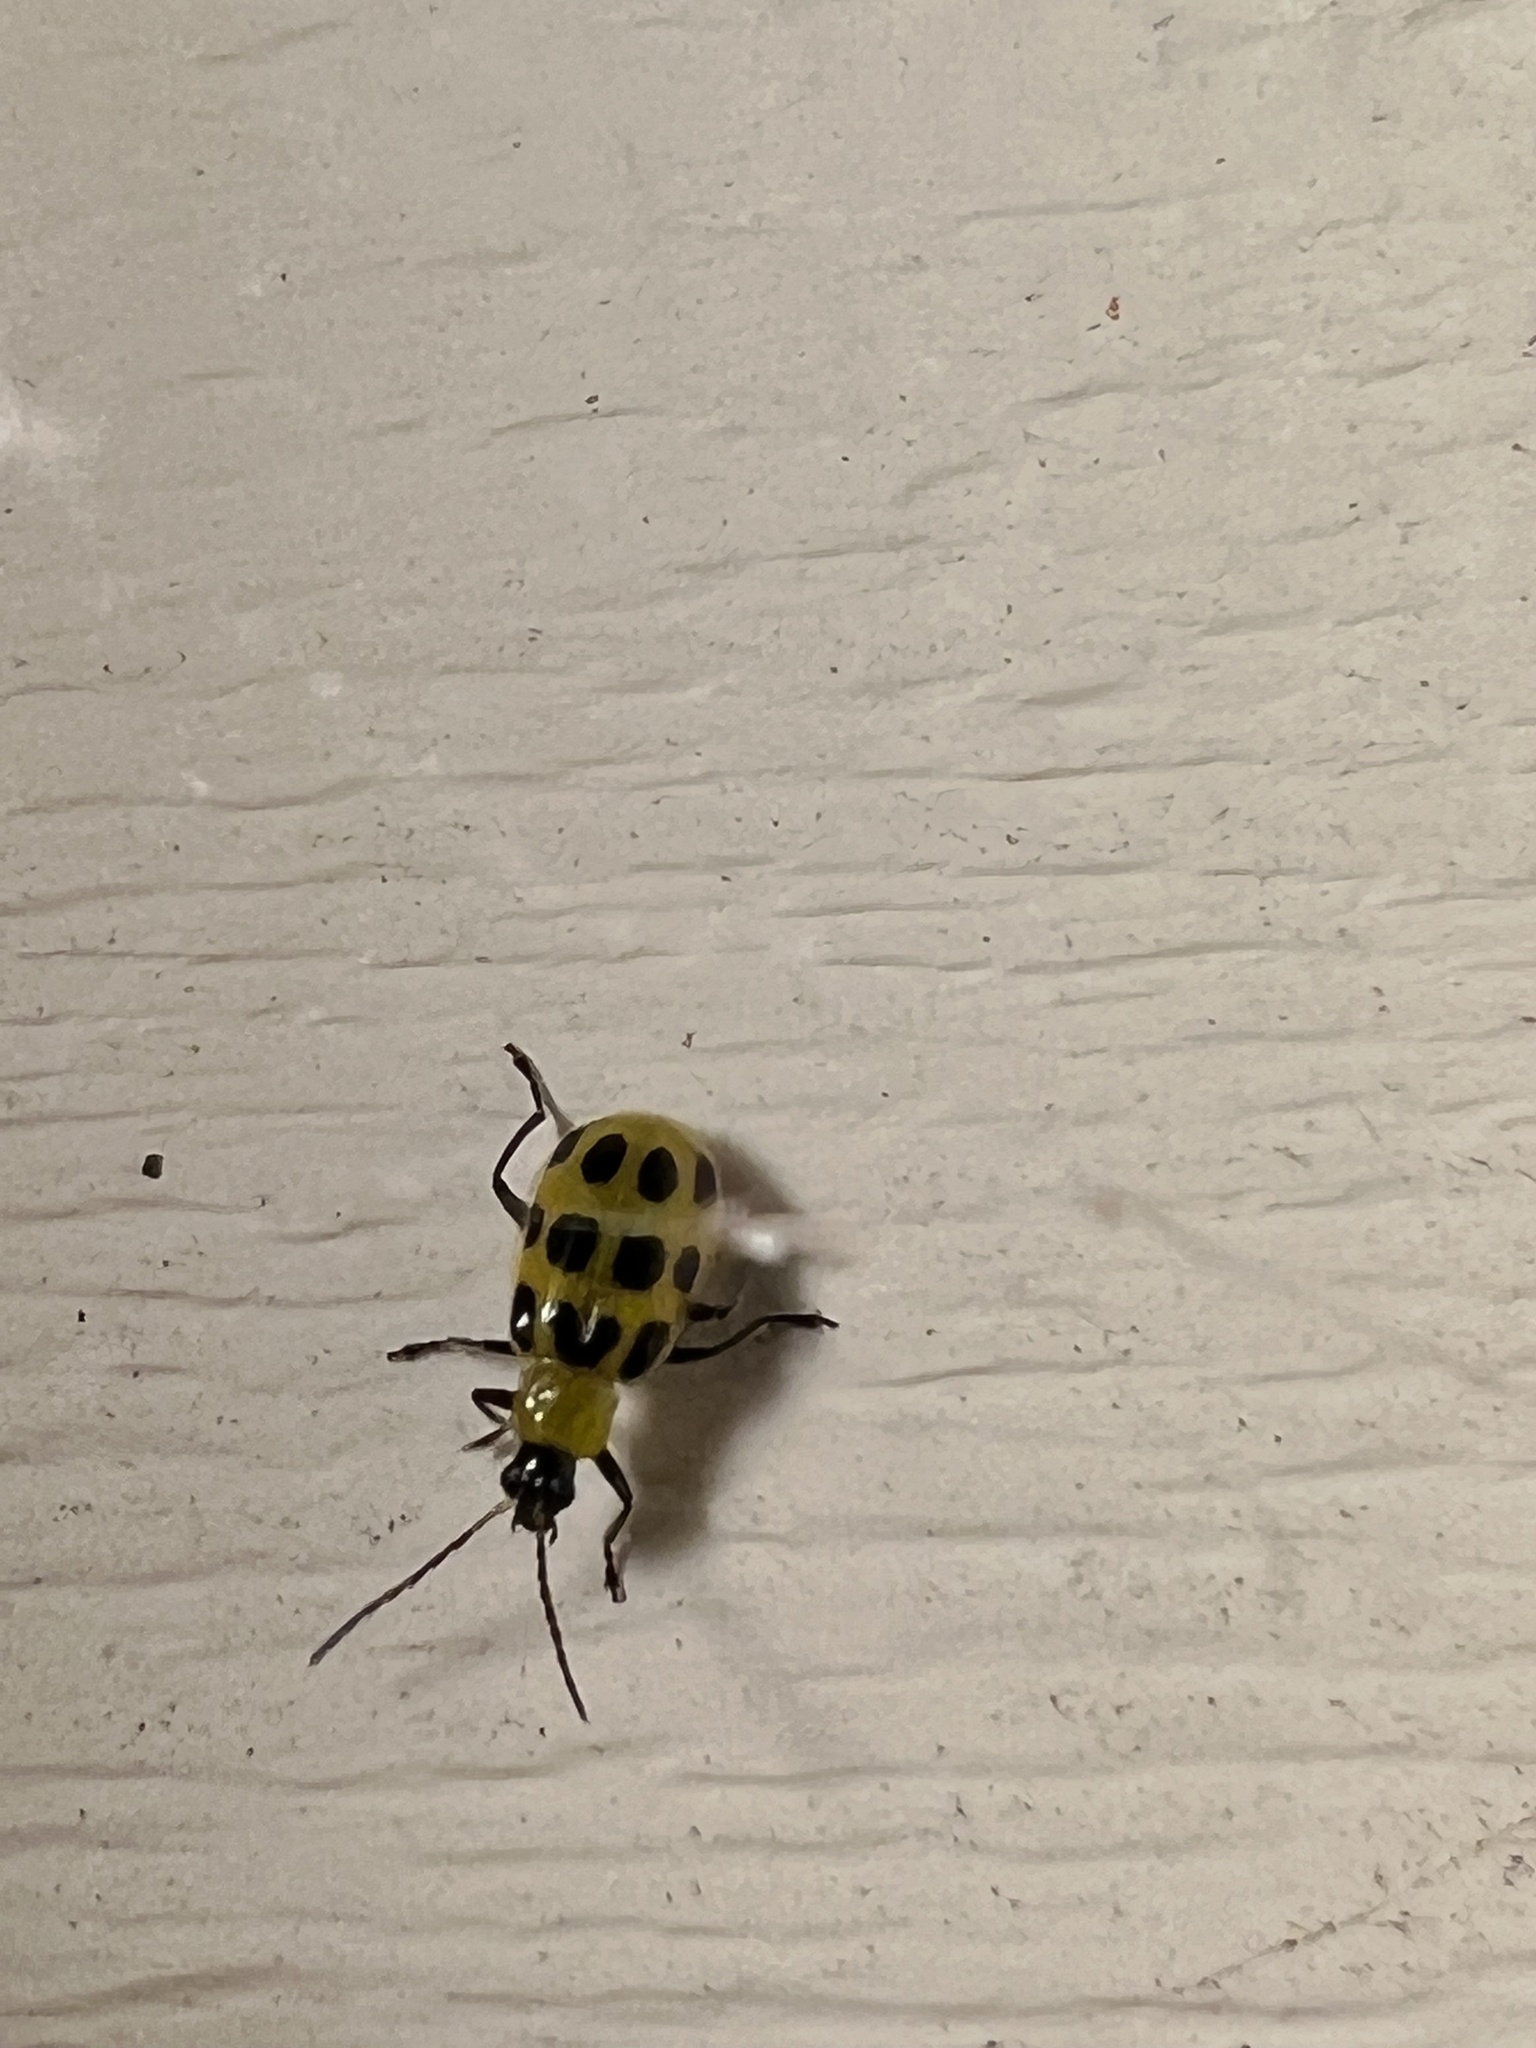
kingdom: Animalia
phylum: Arthropoda
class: Insecta
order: Coleoptera
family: Chrysomelidae
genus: Diabrotica
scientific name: Diabrotica undecimpunctata
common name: Spotted cucumber beetle
